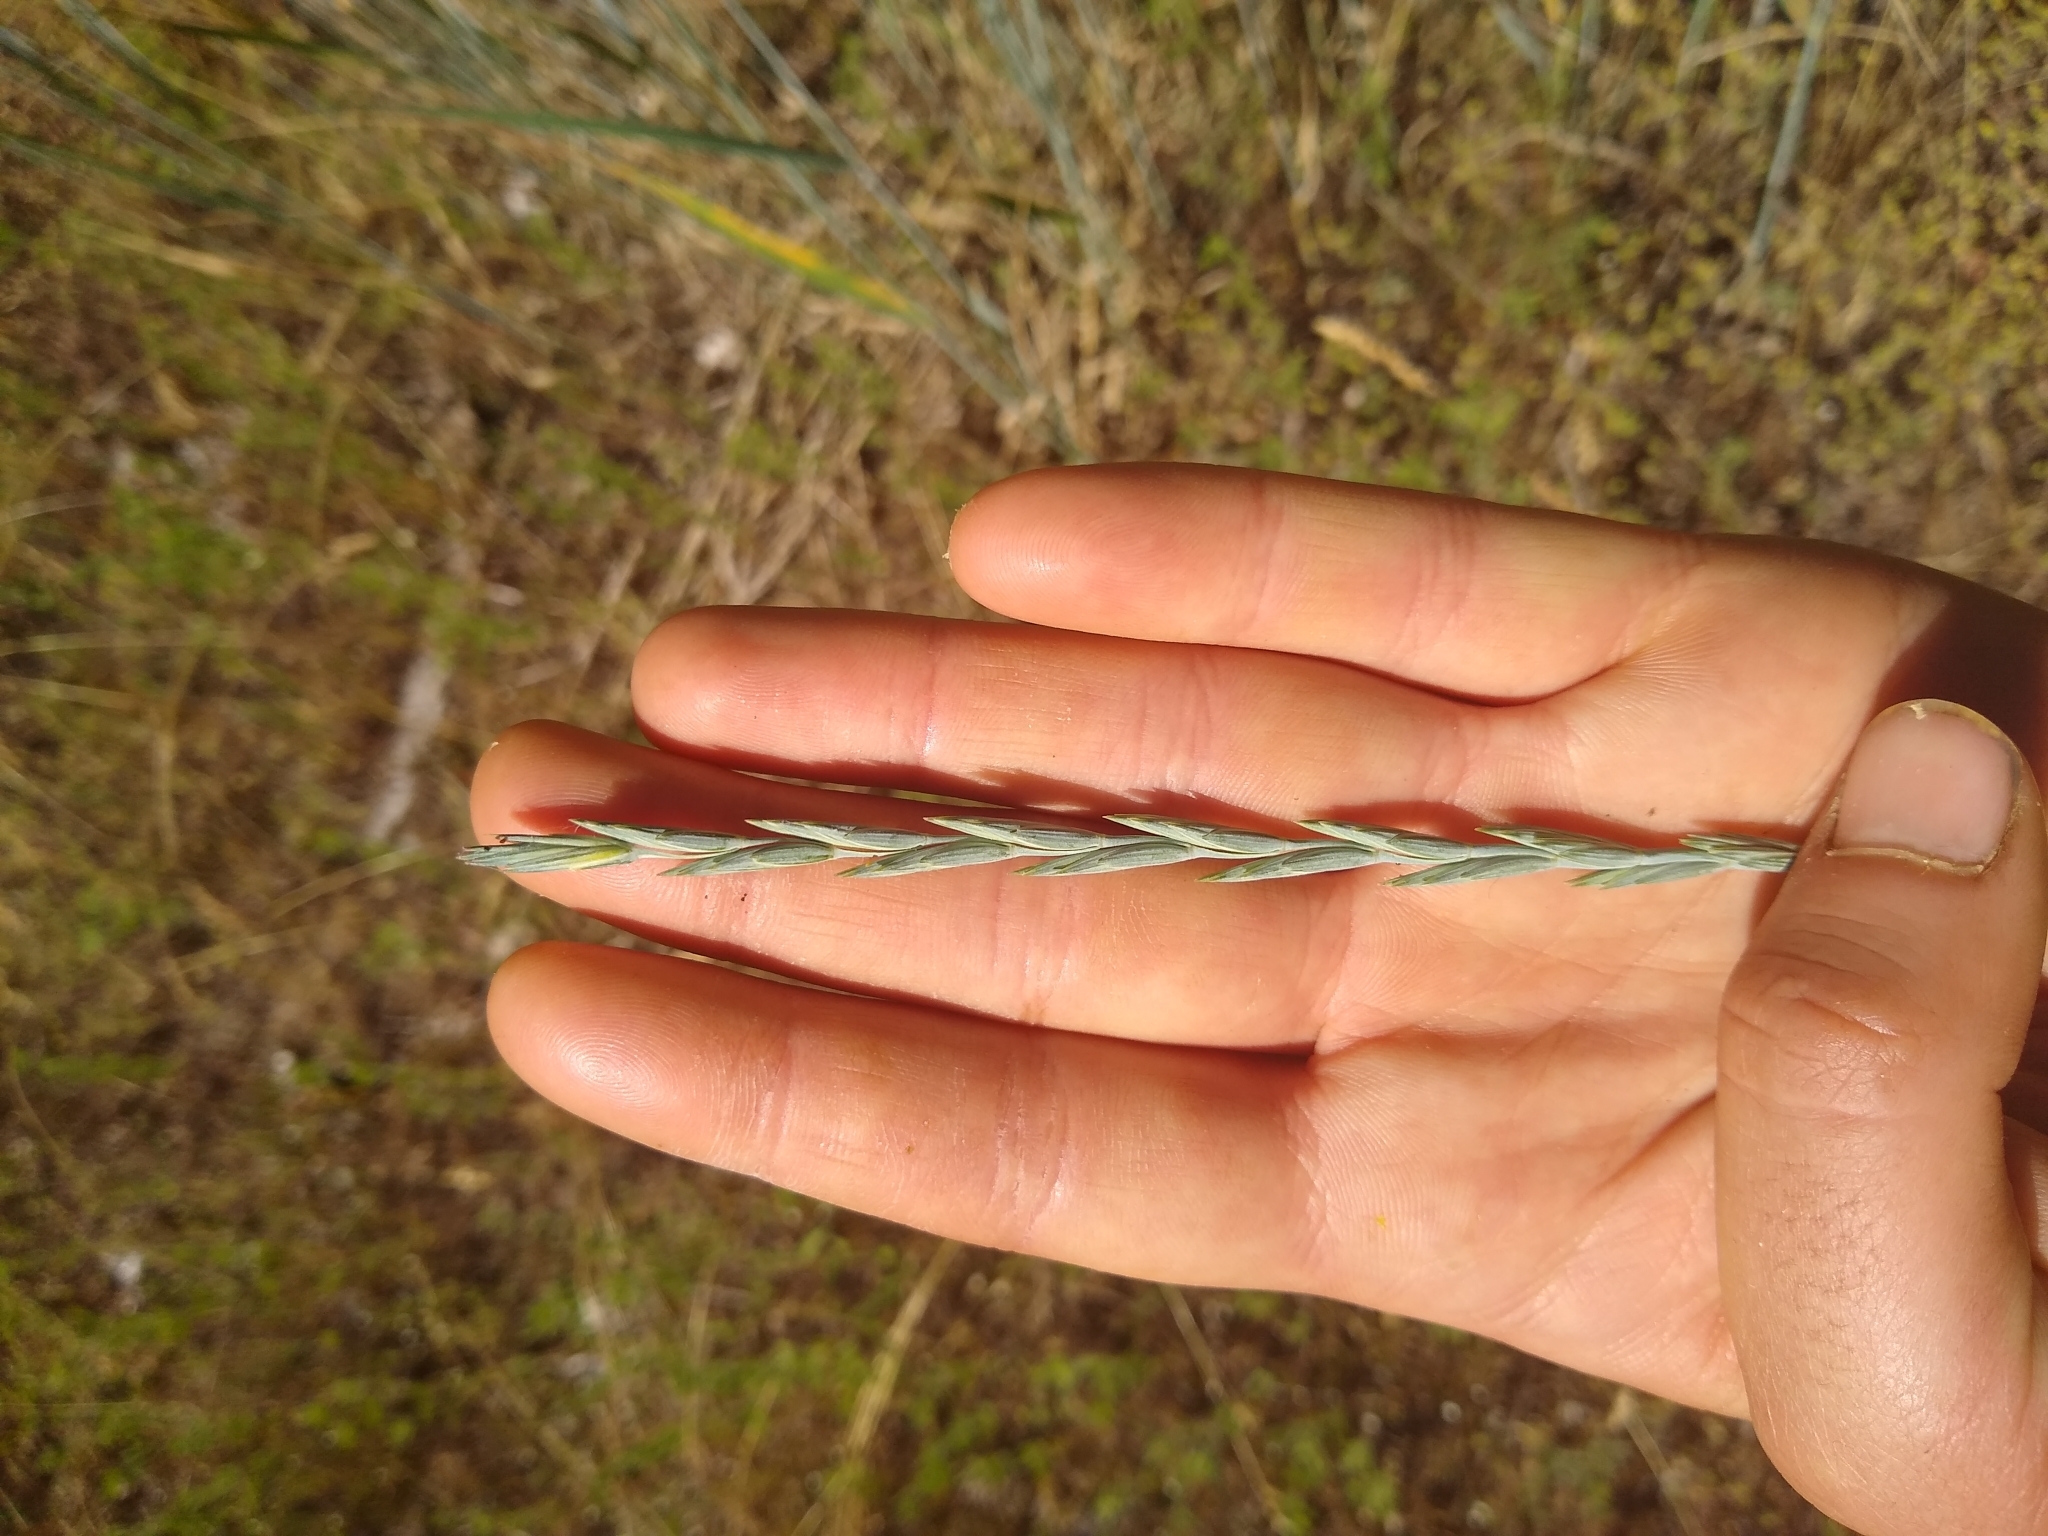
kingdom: Plantae
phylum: Tracheophyta
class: Liliopsida
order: Poales
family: Poaceae
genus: Thinopyrum
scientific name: Thinopyrum intermedium
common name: Intermediate wheatgrass
